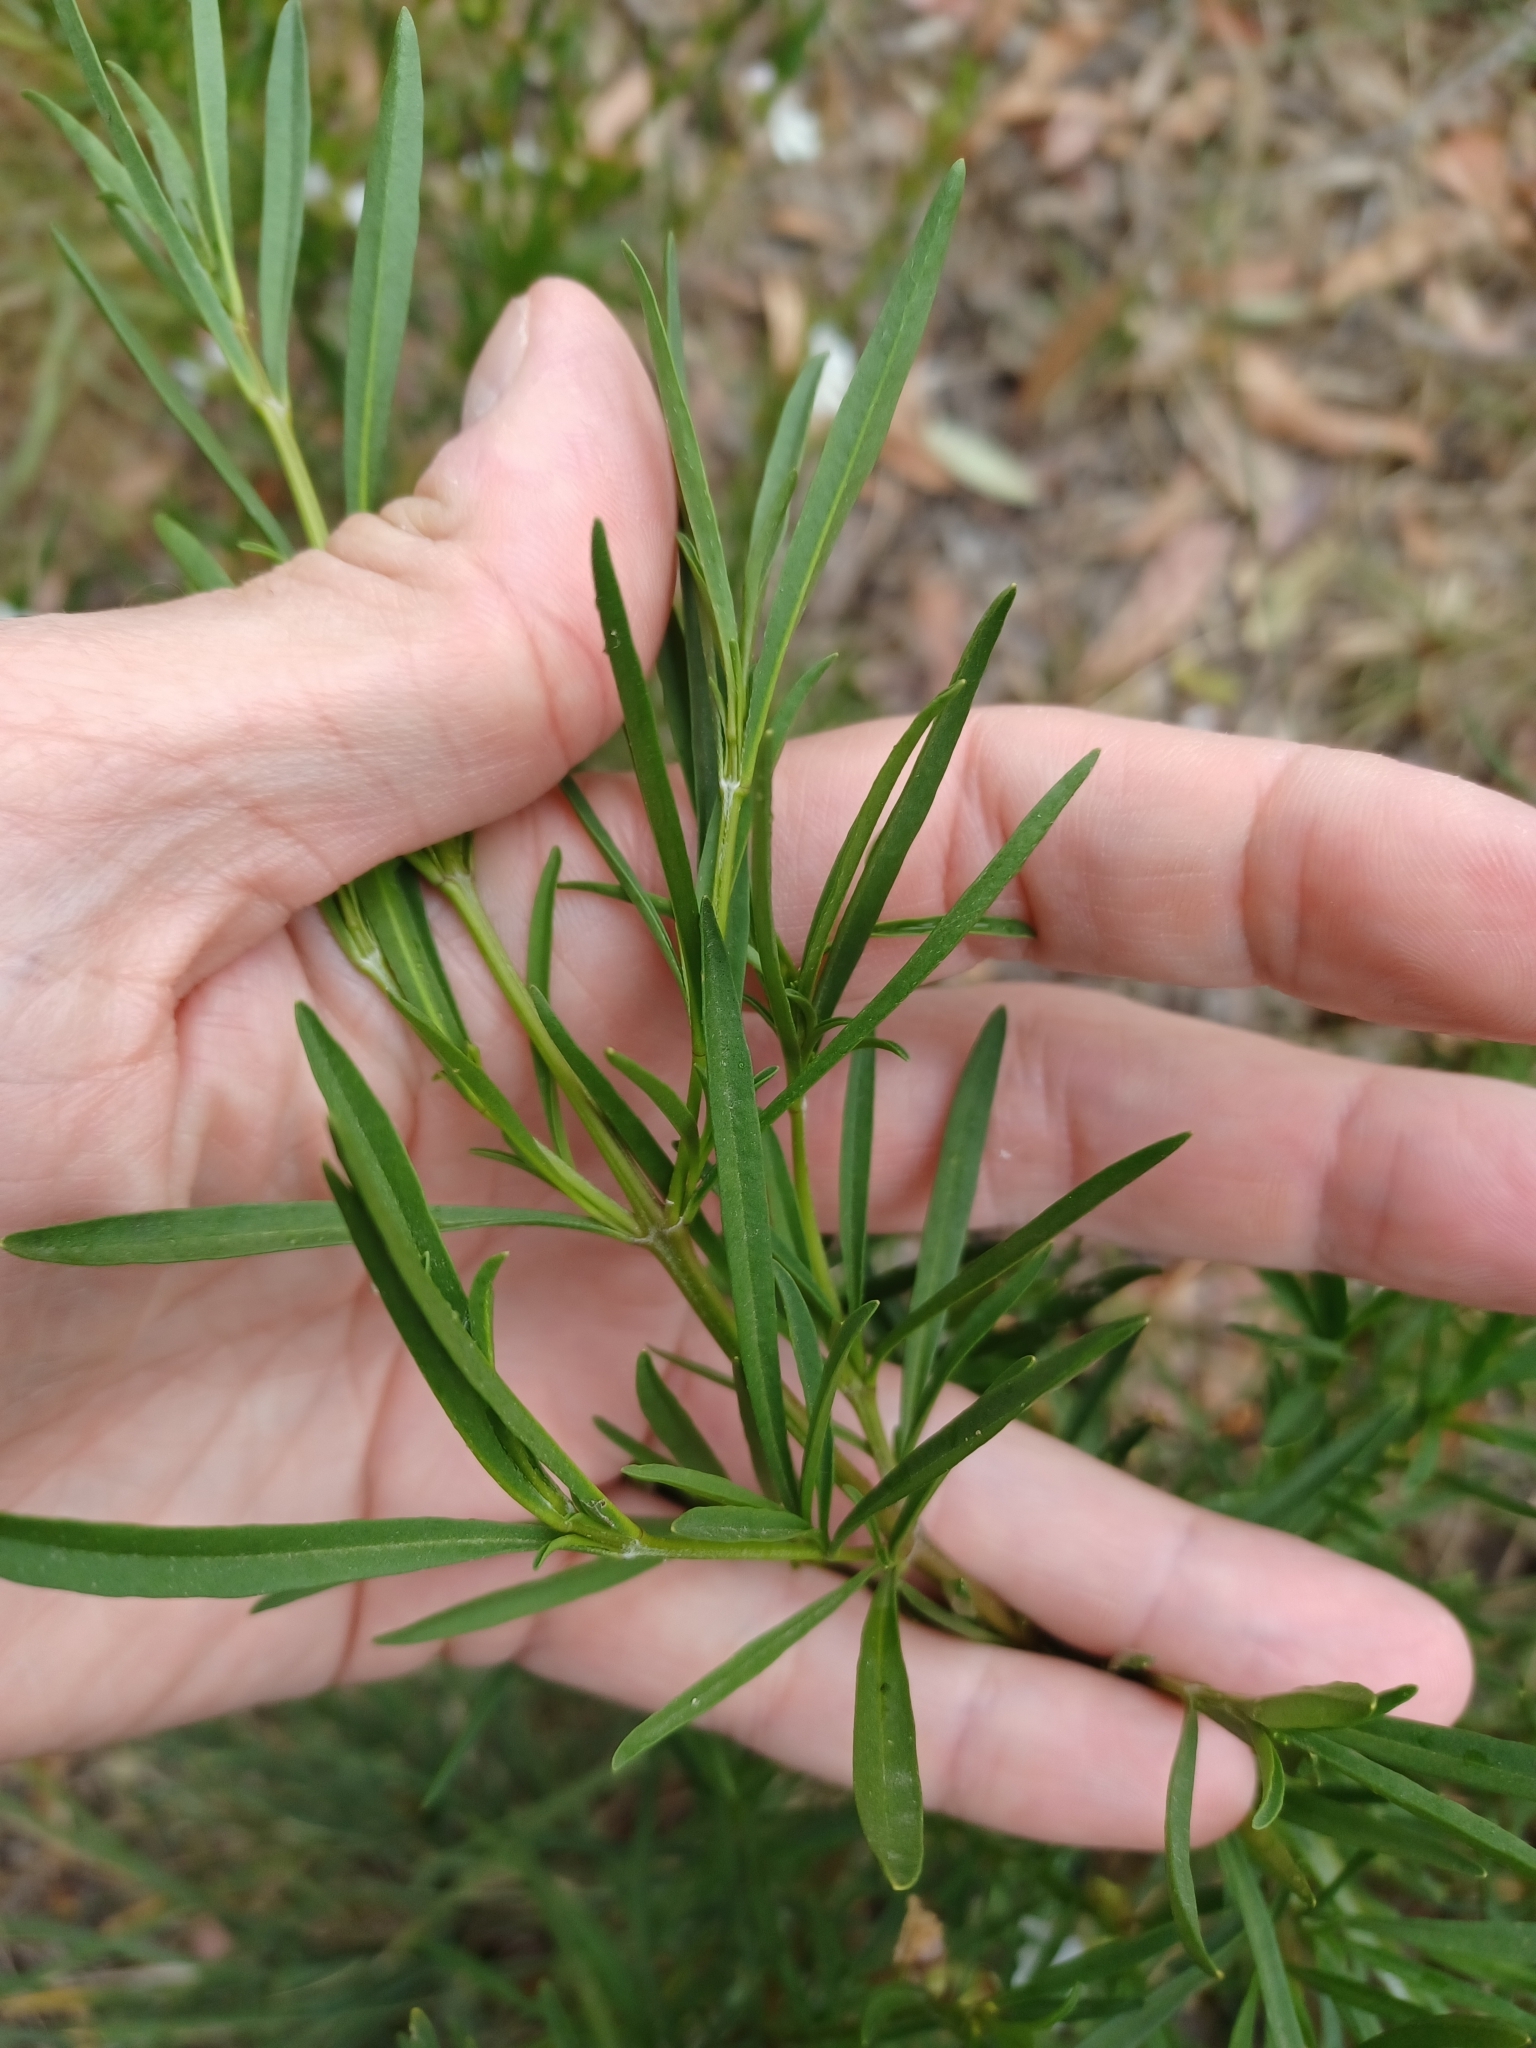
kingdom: Plantae
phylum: Tracheophyta
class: Magnoliopsida
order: Lamiales
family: Lamiaceae
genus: Prostanthera
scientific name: Prostanthera nivea
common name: Snowy mintbush
